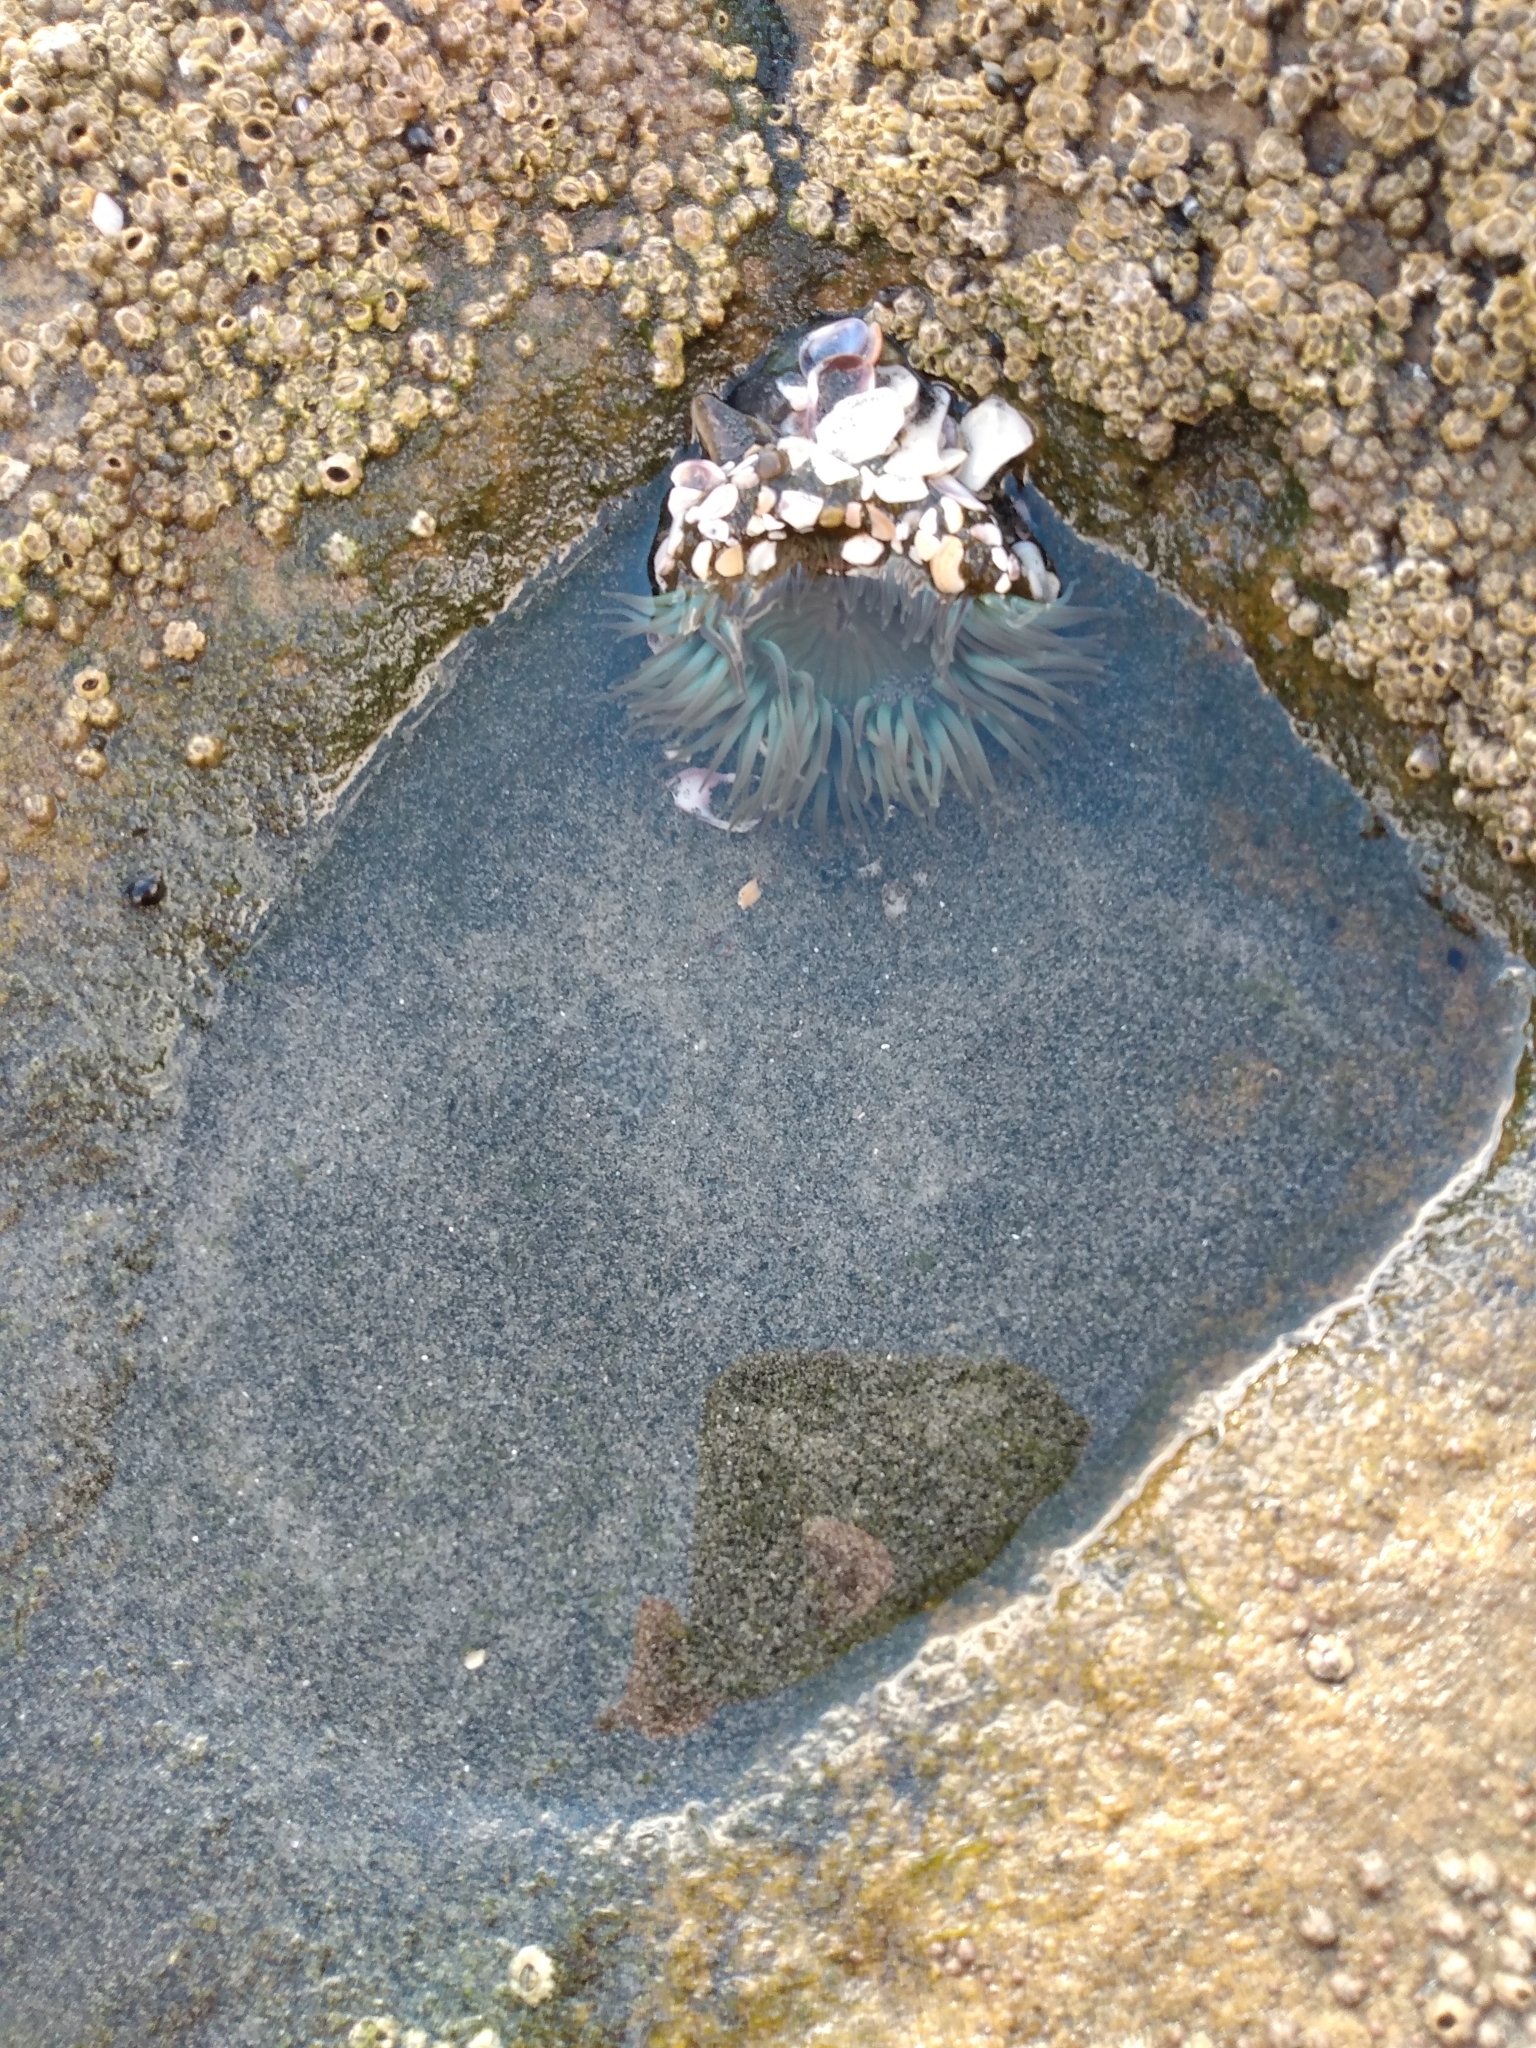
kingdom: Animalia
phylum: Cnidaria
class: Anthozoa
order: Actiniaria
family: Actiniidae
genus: Anthopleura
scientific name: Anthopleura sola
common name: Sun anemone
